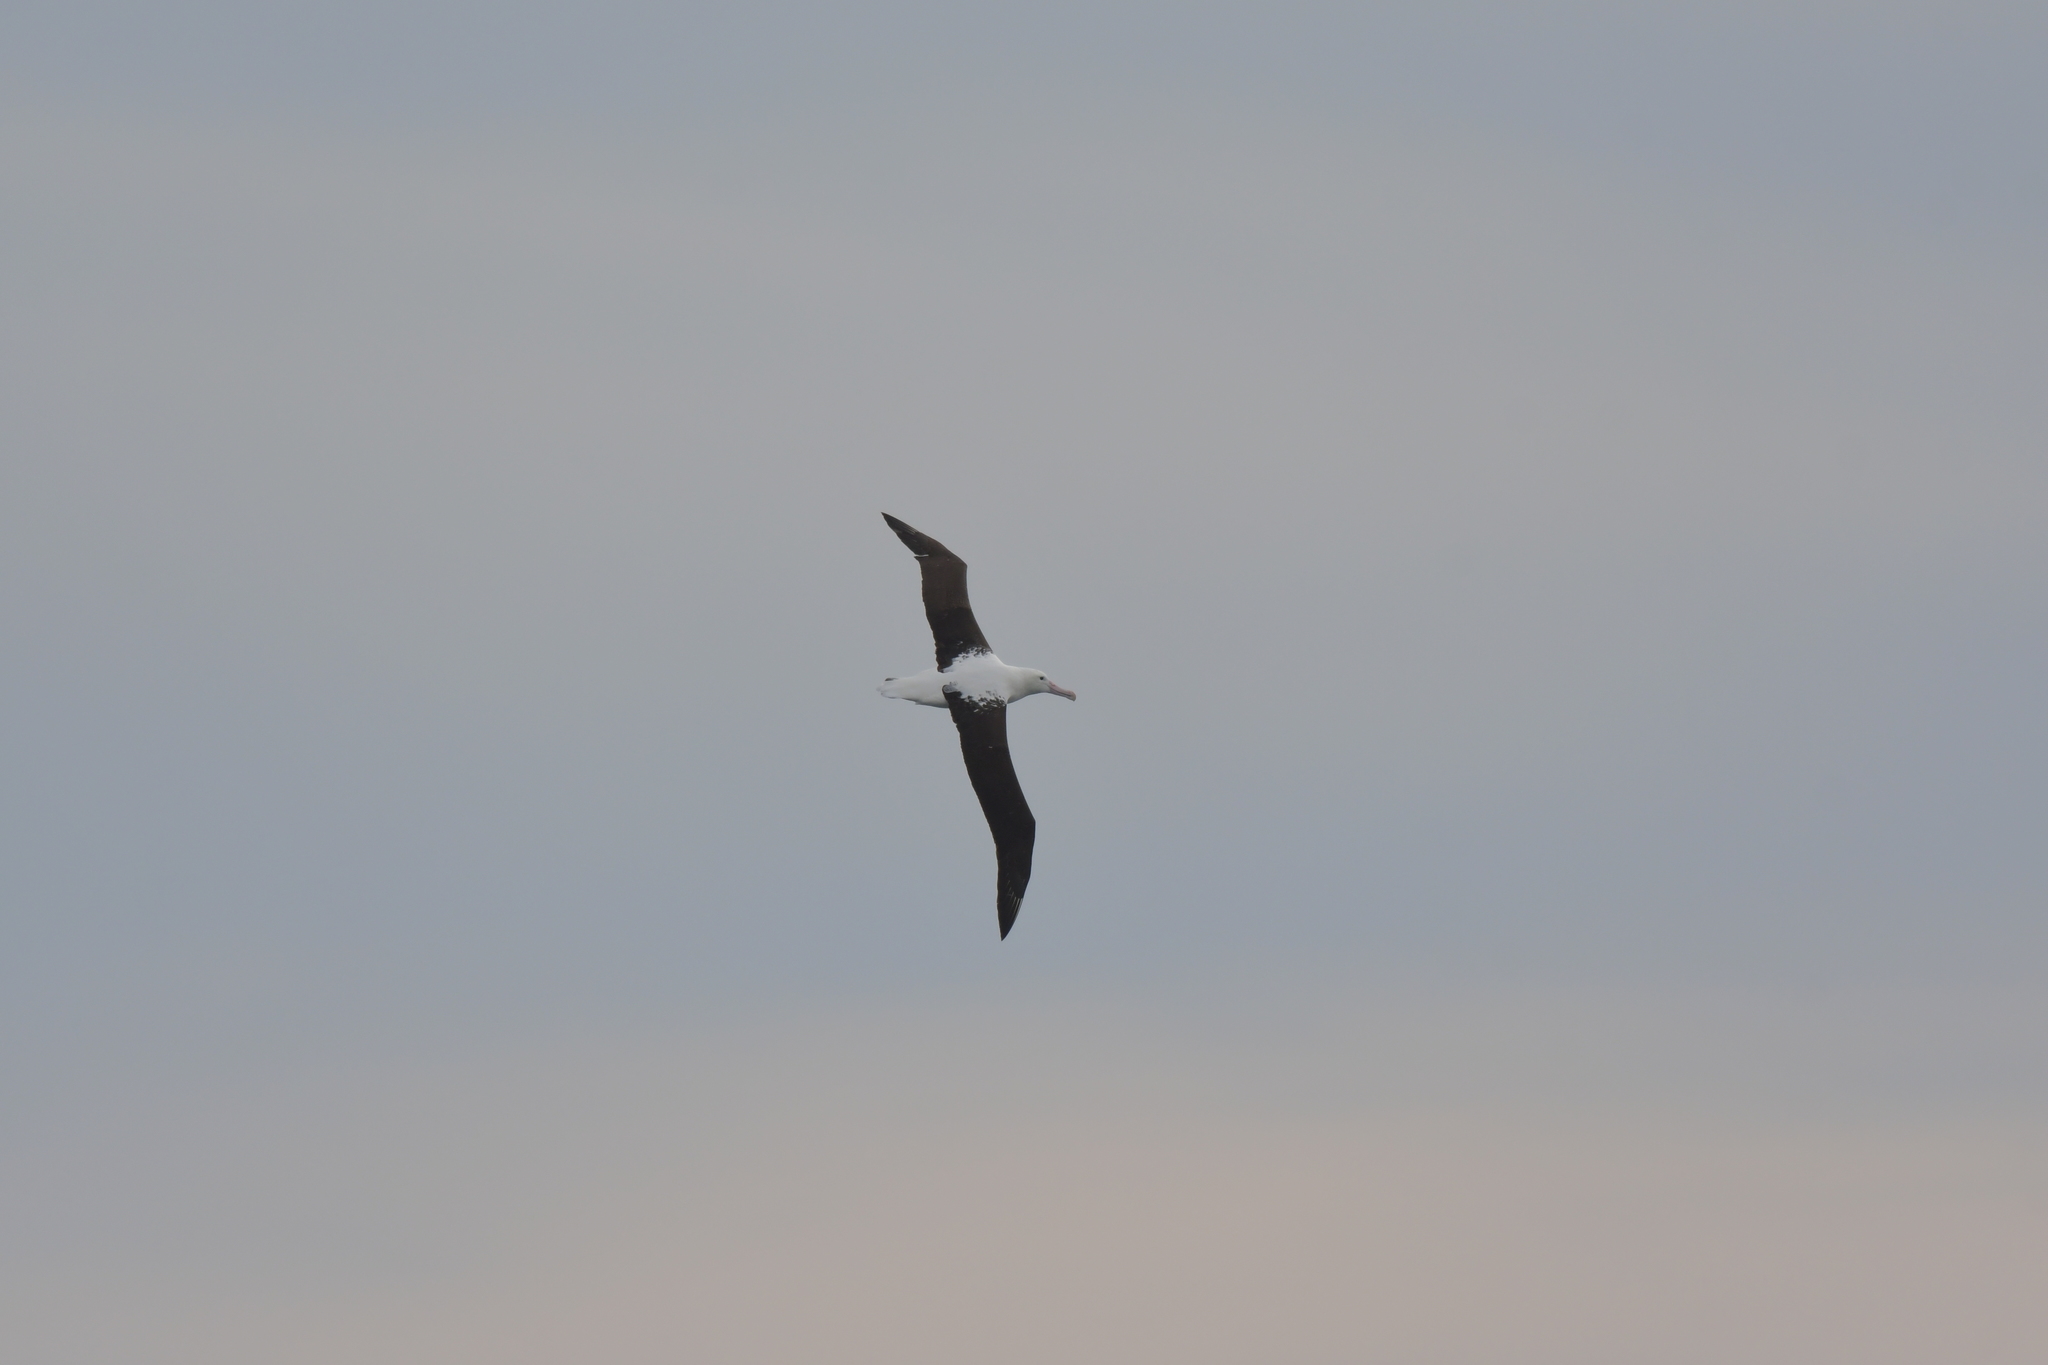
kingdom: Animalia
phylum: Chordata
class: Aves
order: Procellariiformes
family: Diomedeidae
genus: Diomedea
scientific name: Diomedea sanfordi
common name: Northern royal albatross
